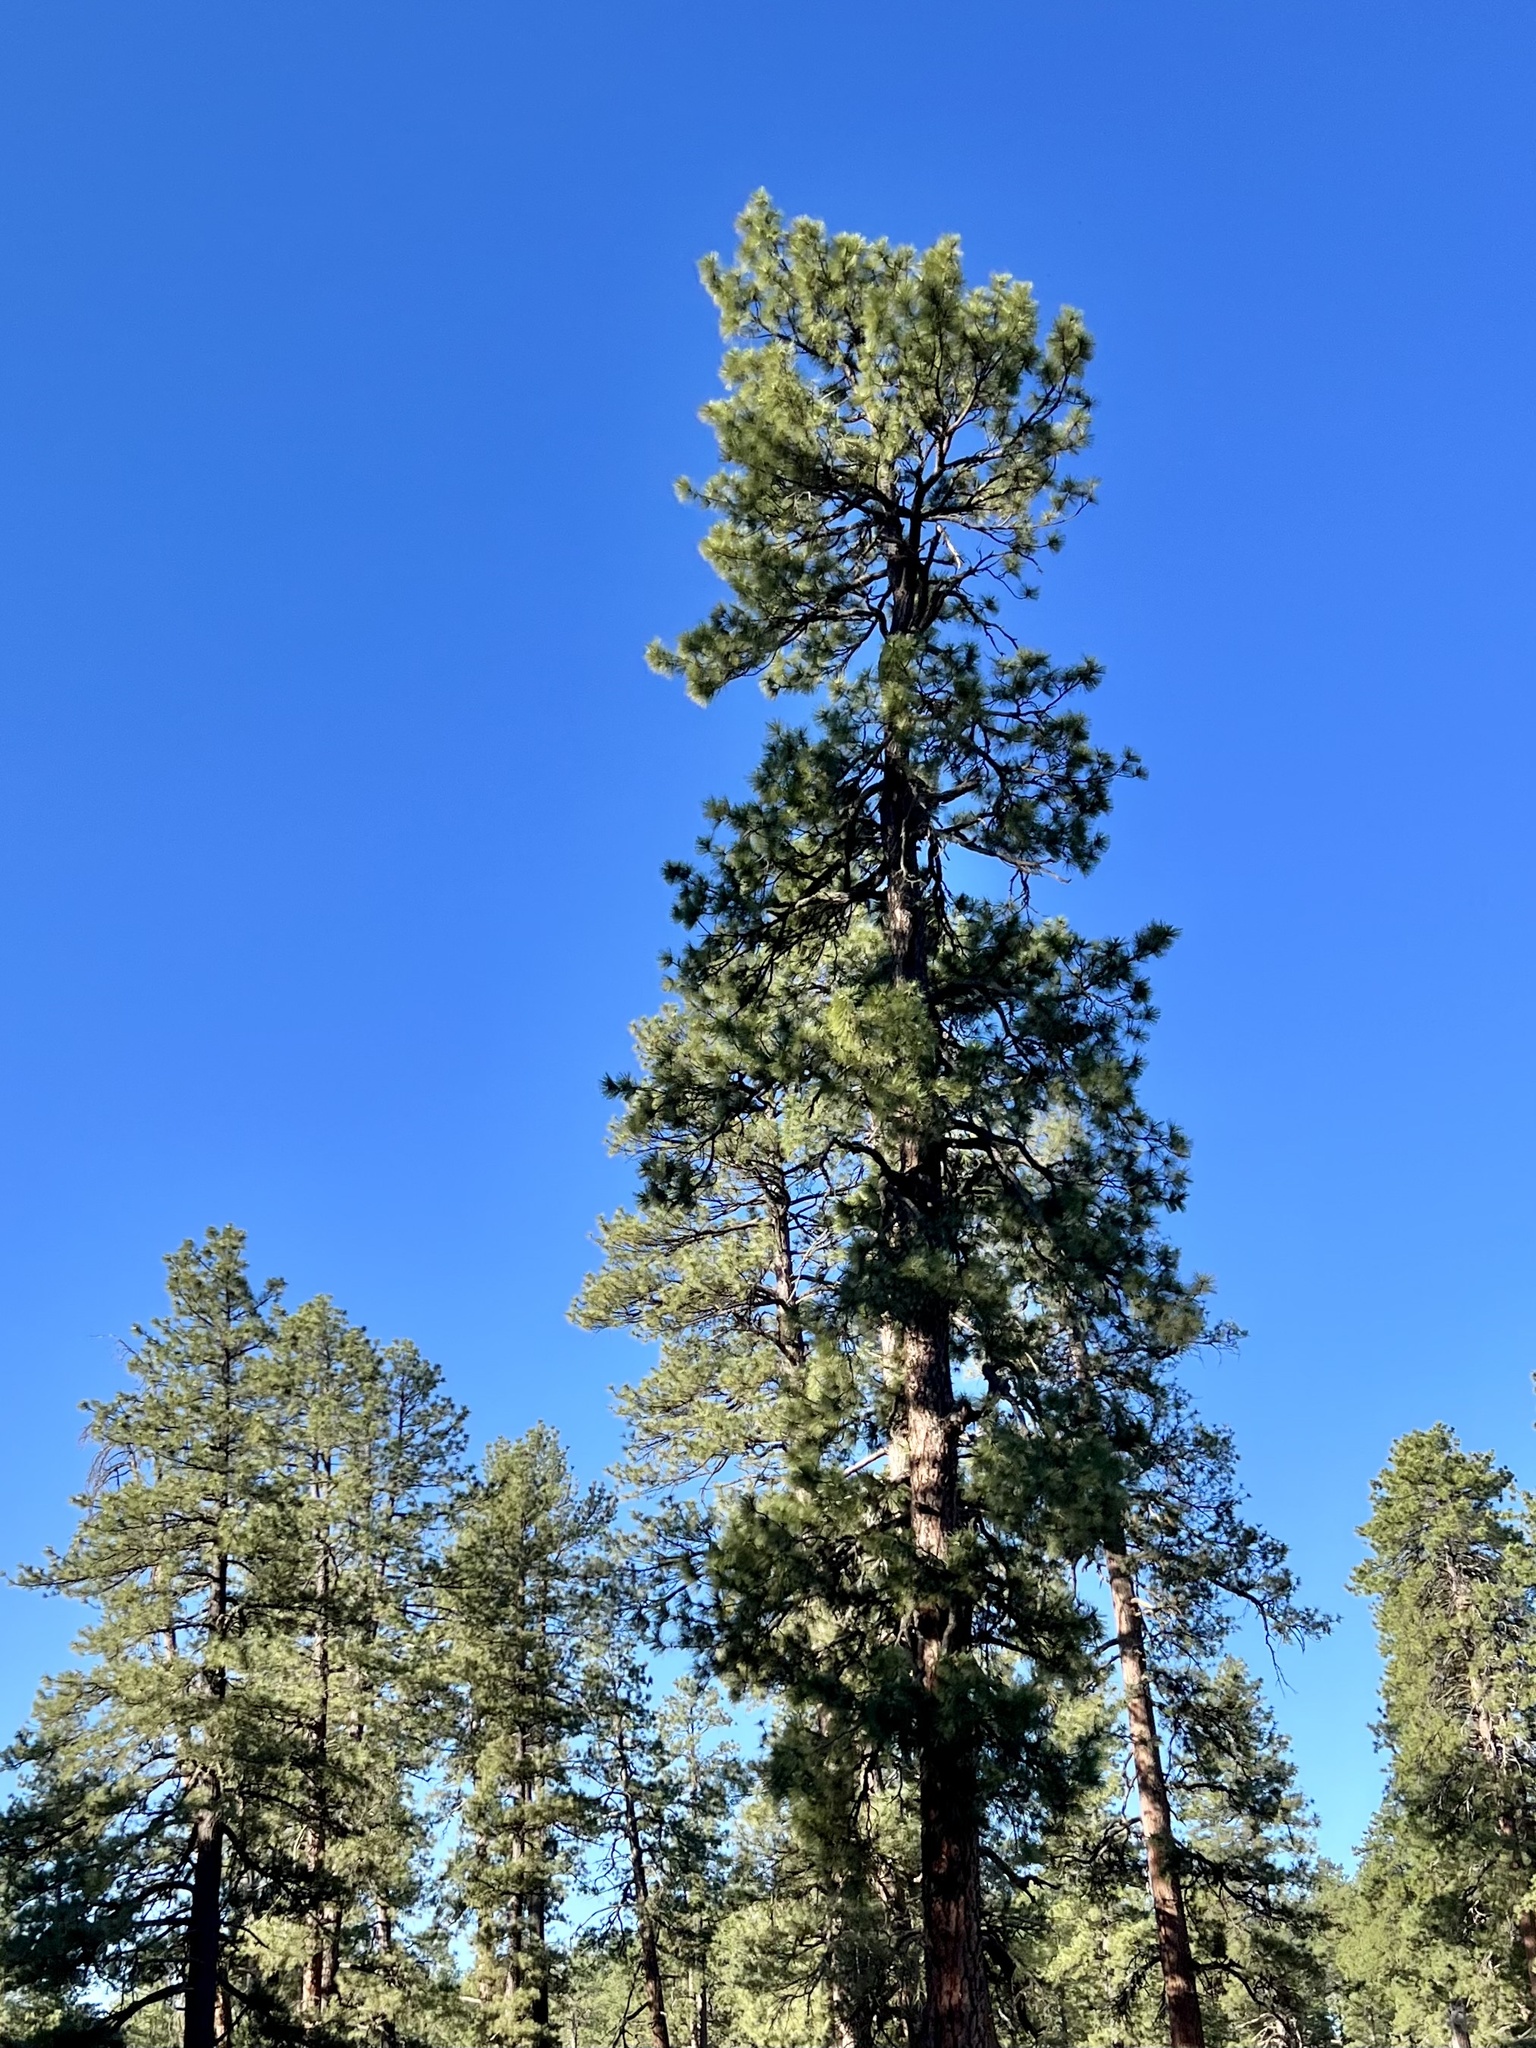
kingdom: Plantae
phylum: Tracheophyta
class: Pinopsida
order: Pinales
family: Pinaceae
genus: Pinus
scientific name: Pinus ponderosa
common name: Western yellow-pine
